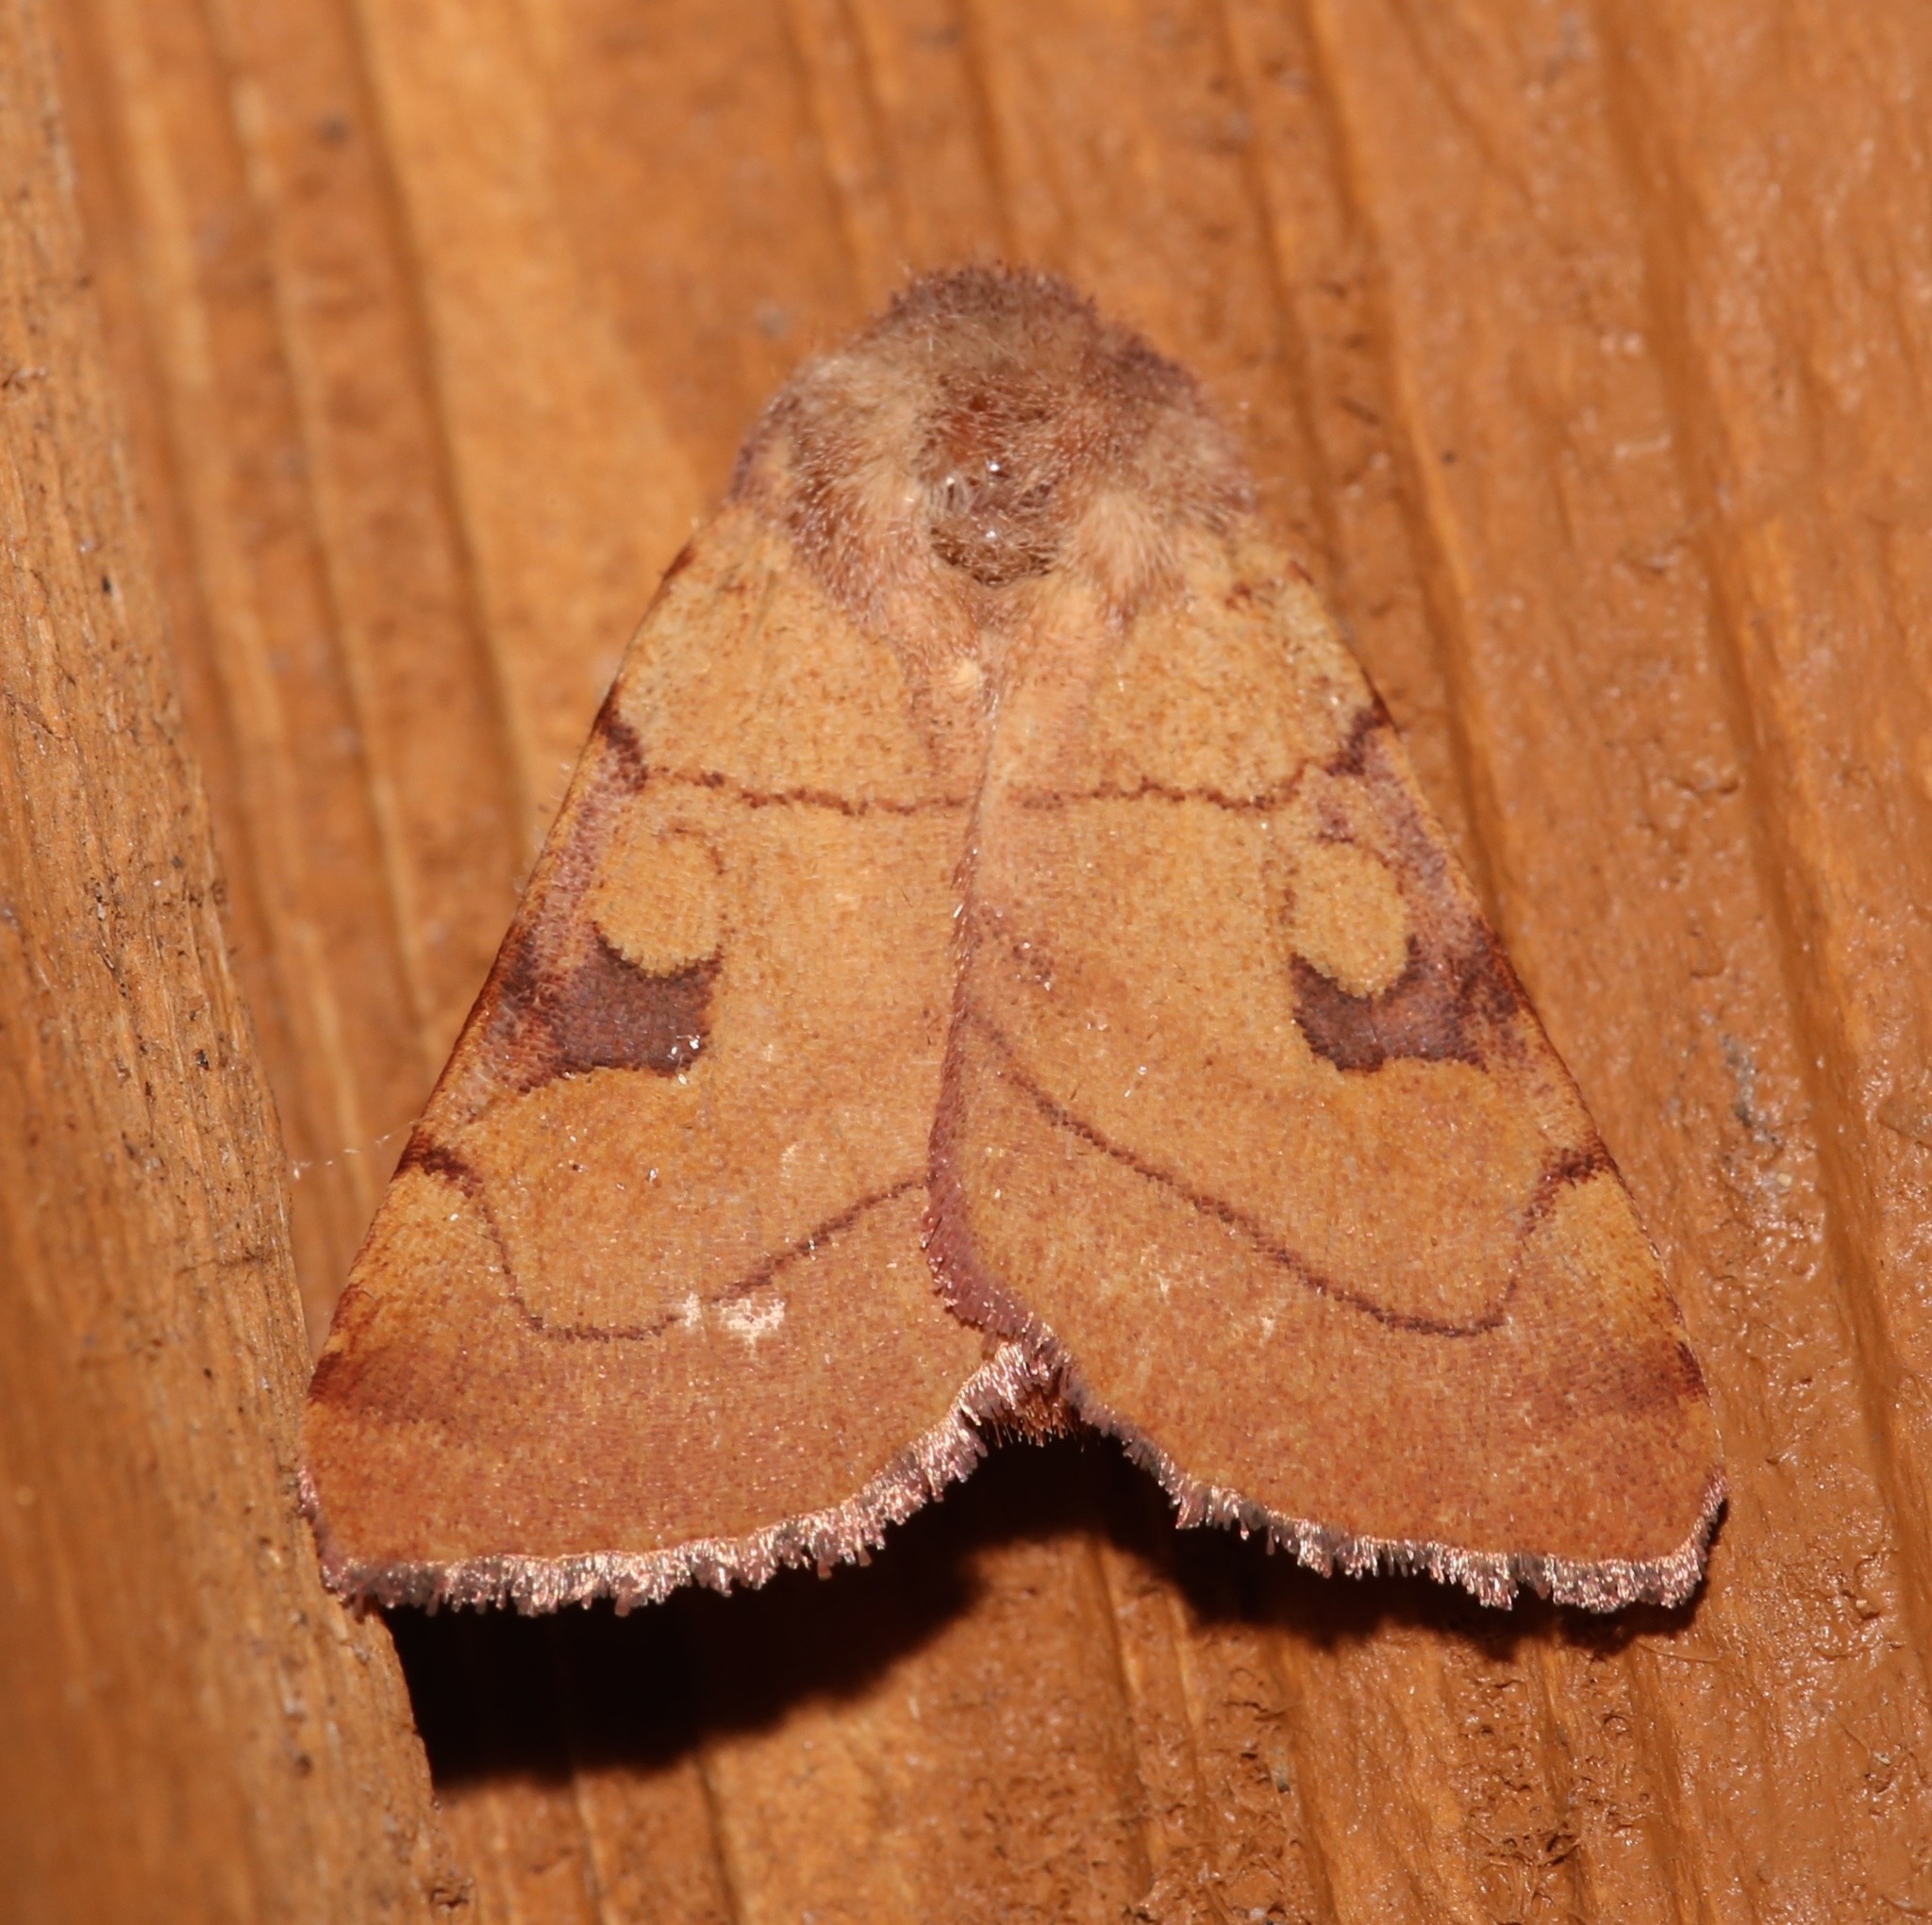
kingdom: Animalia
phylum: Arthropoda
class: Insecta
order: Lepidoptera
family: Noctuidae
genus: Choephora
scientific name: Choephora fungorum
